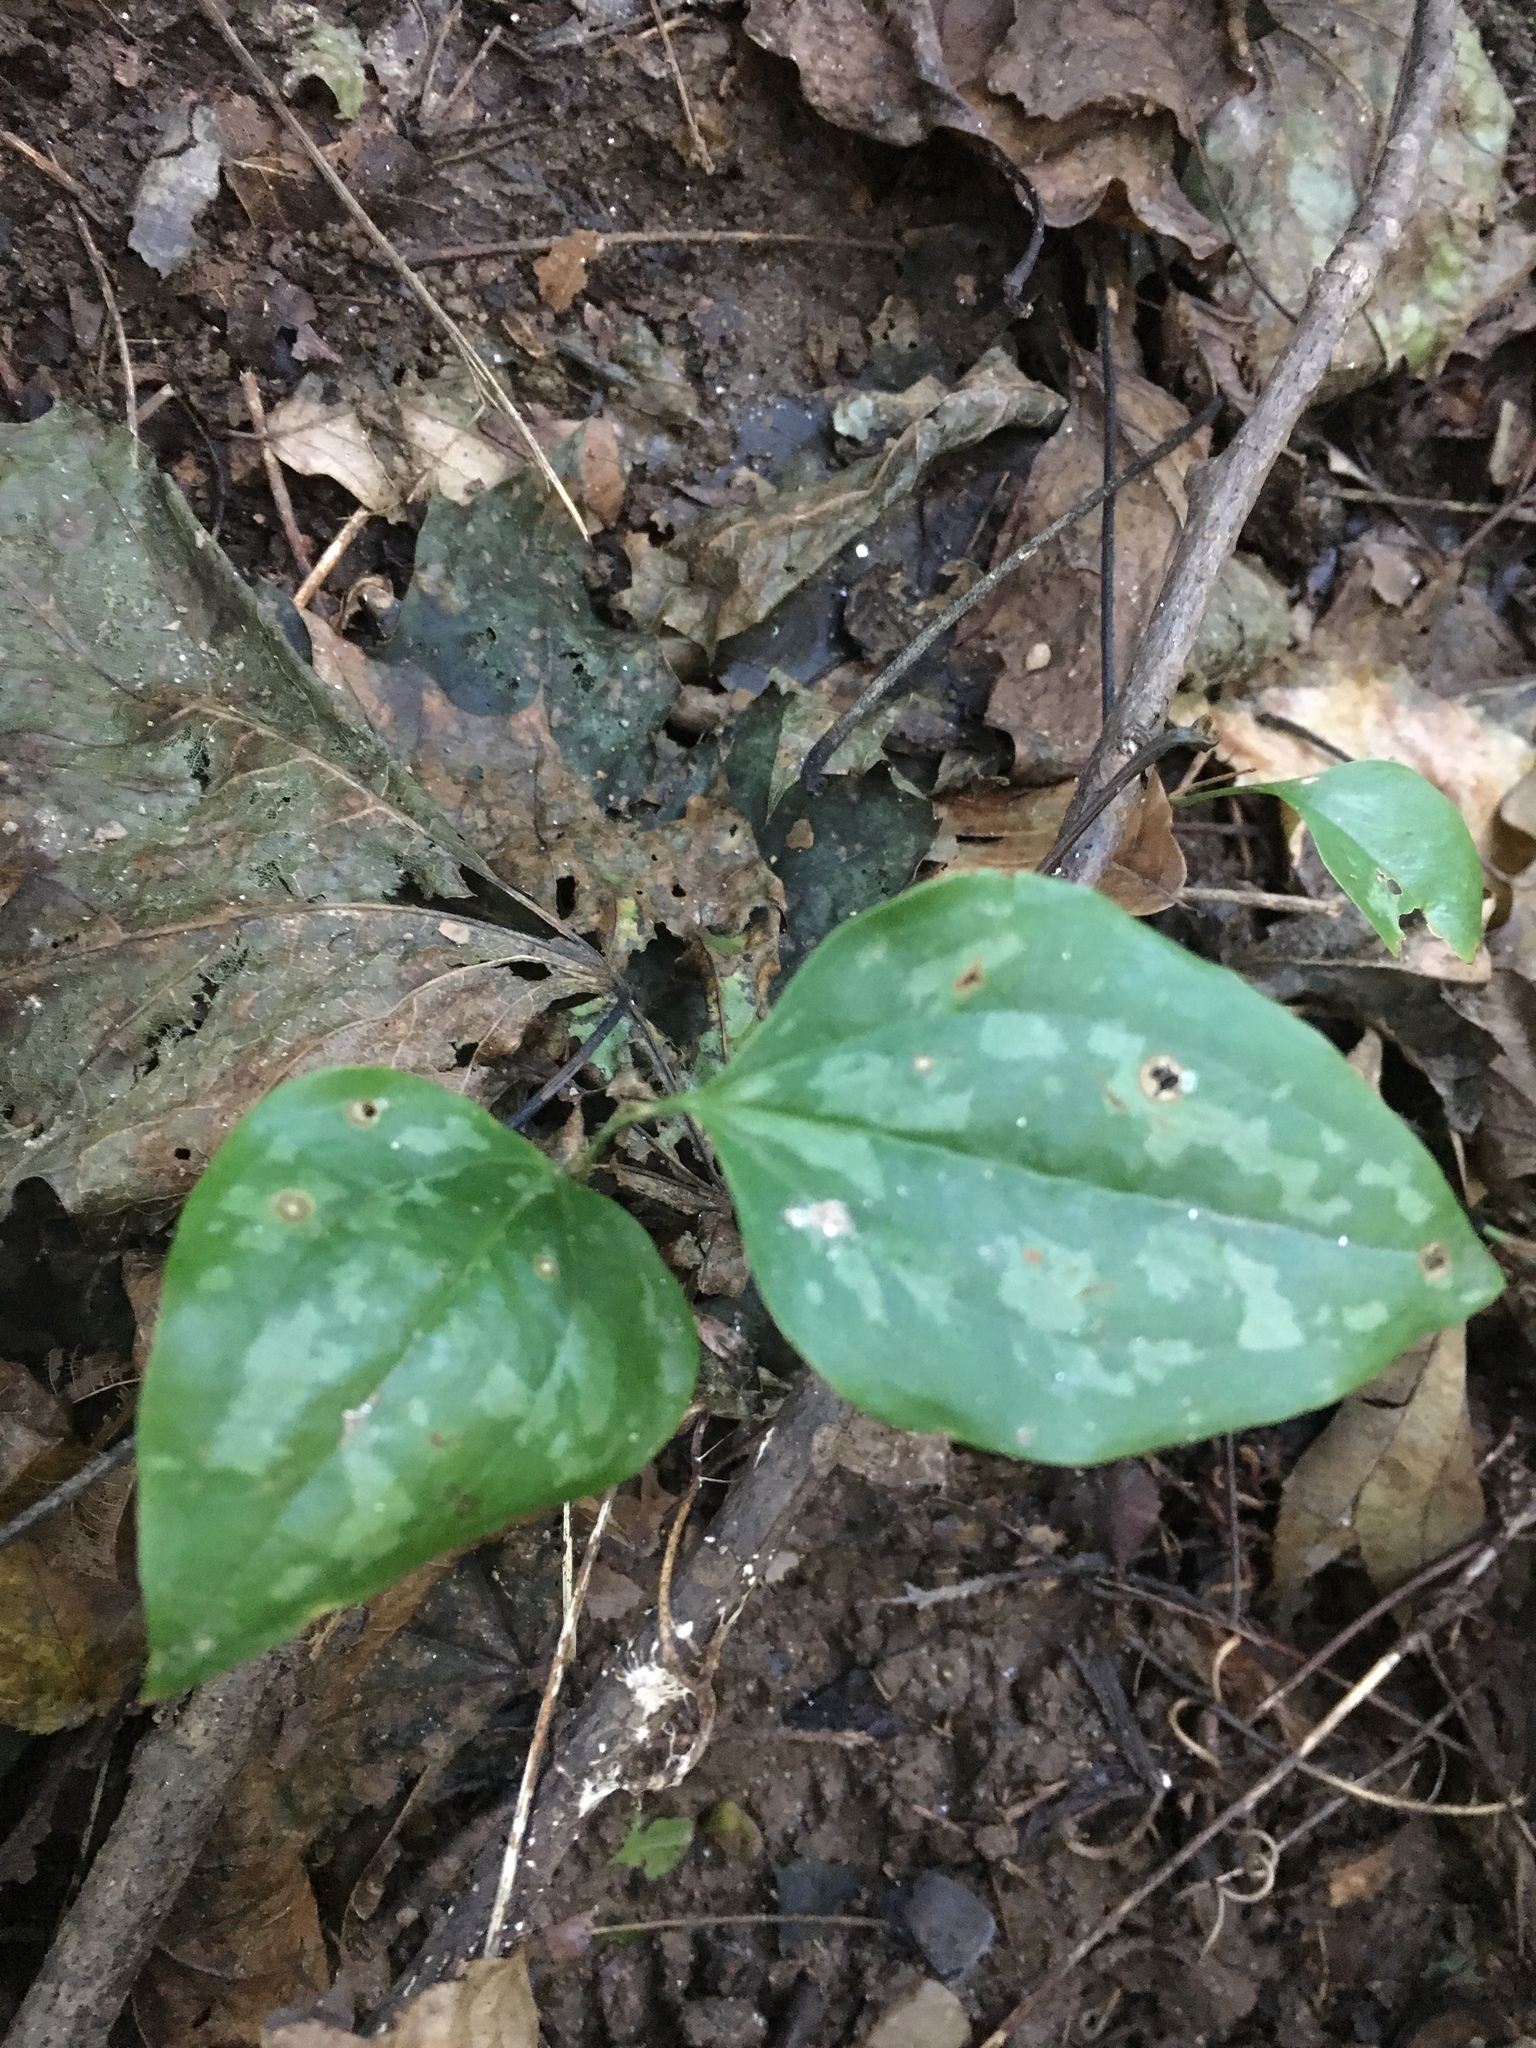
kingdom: Plantae
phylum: Tracheophyta
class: Liliopsida
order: Liliales
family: Smilacaceae
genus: Smilax
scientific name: Smilax glauca
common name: Cat greenbrier
